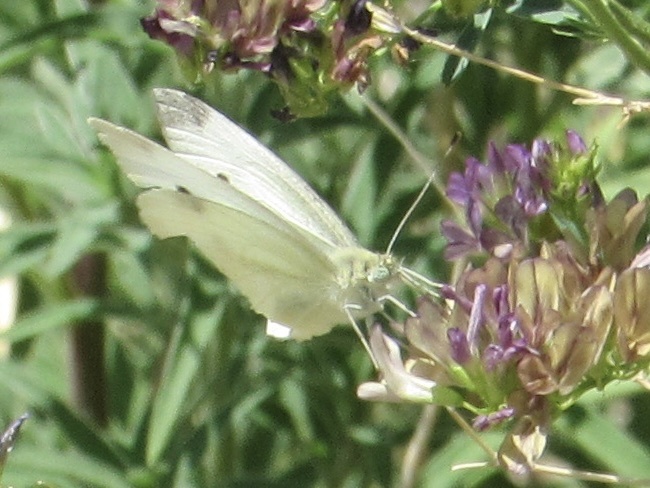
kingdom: Animalia
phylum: Arthropoda
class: Insecta
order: Lepidoptera
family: Pieridae
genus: Pieris
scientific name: Pieris rapae
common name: Small white
